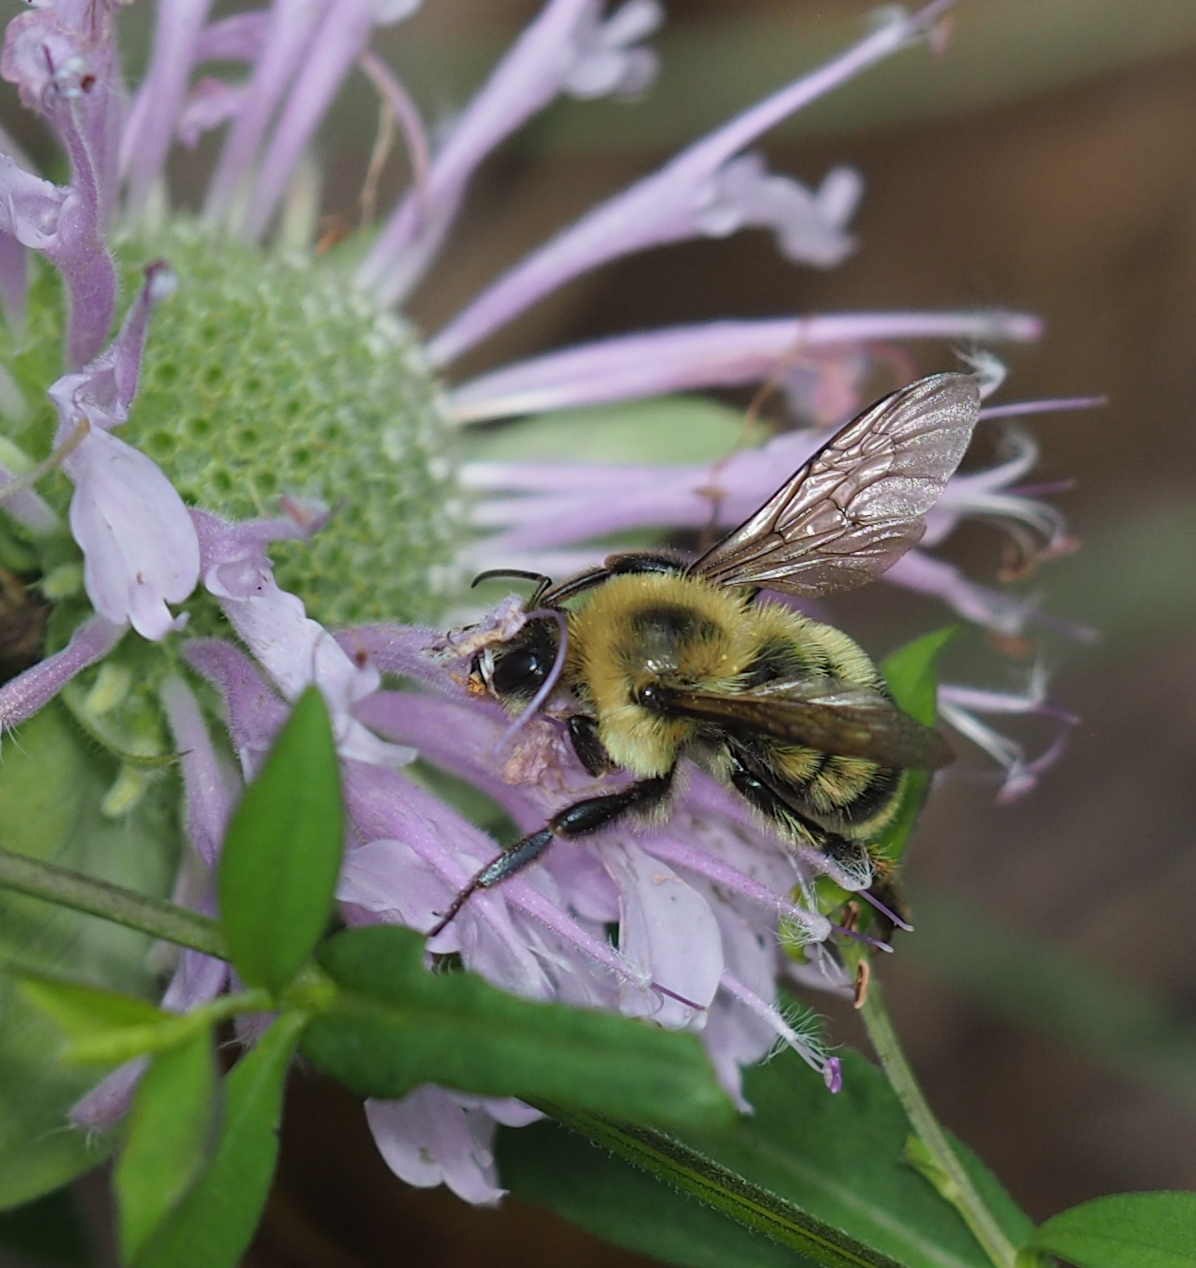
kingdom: Animalia
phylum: Arthropoda
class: Insecta
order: Hymenoptera
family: Apidae
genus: Bombus
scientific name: Bombus bimaculatus
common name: Two-spotted bumble bee
